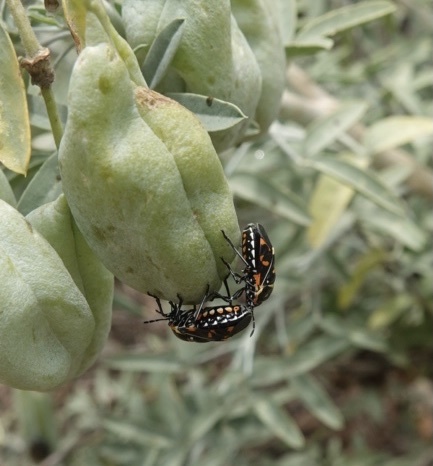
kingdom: Animalia
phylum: Arthropoda
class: Insecta
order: Hemiptera
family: Pentatomidae
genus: Murgantia
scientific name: Murgantia histrionica
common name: Harlequin bug
